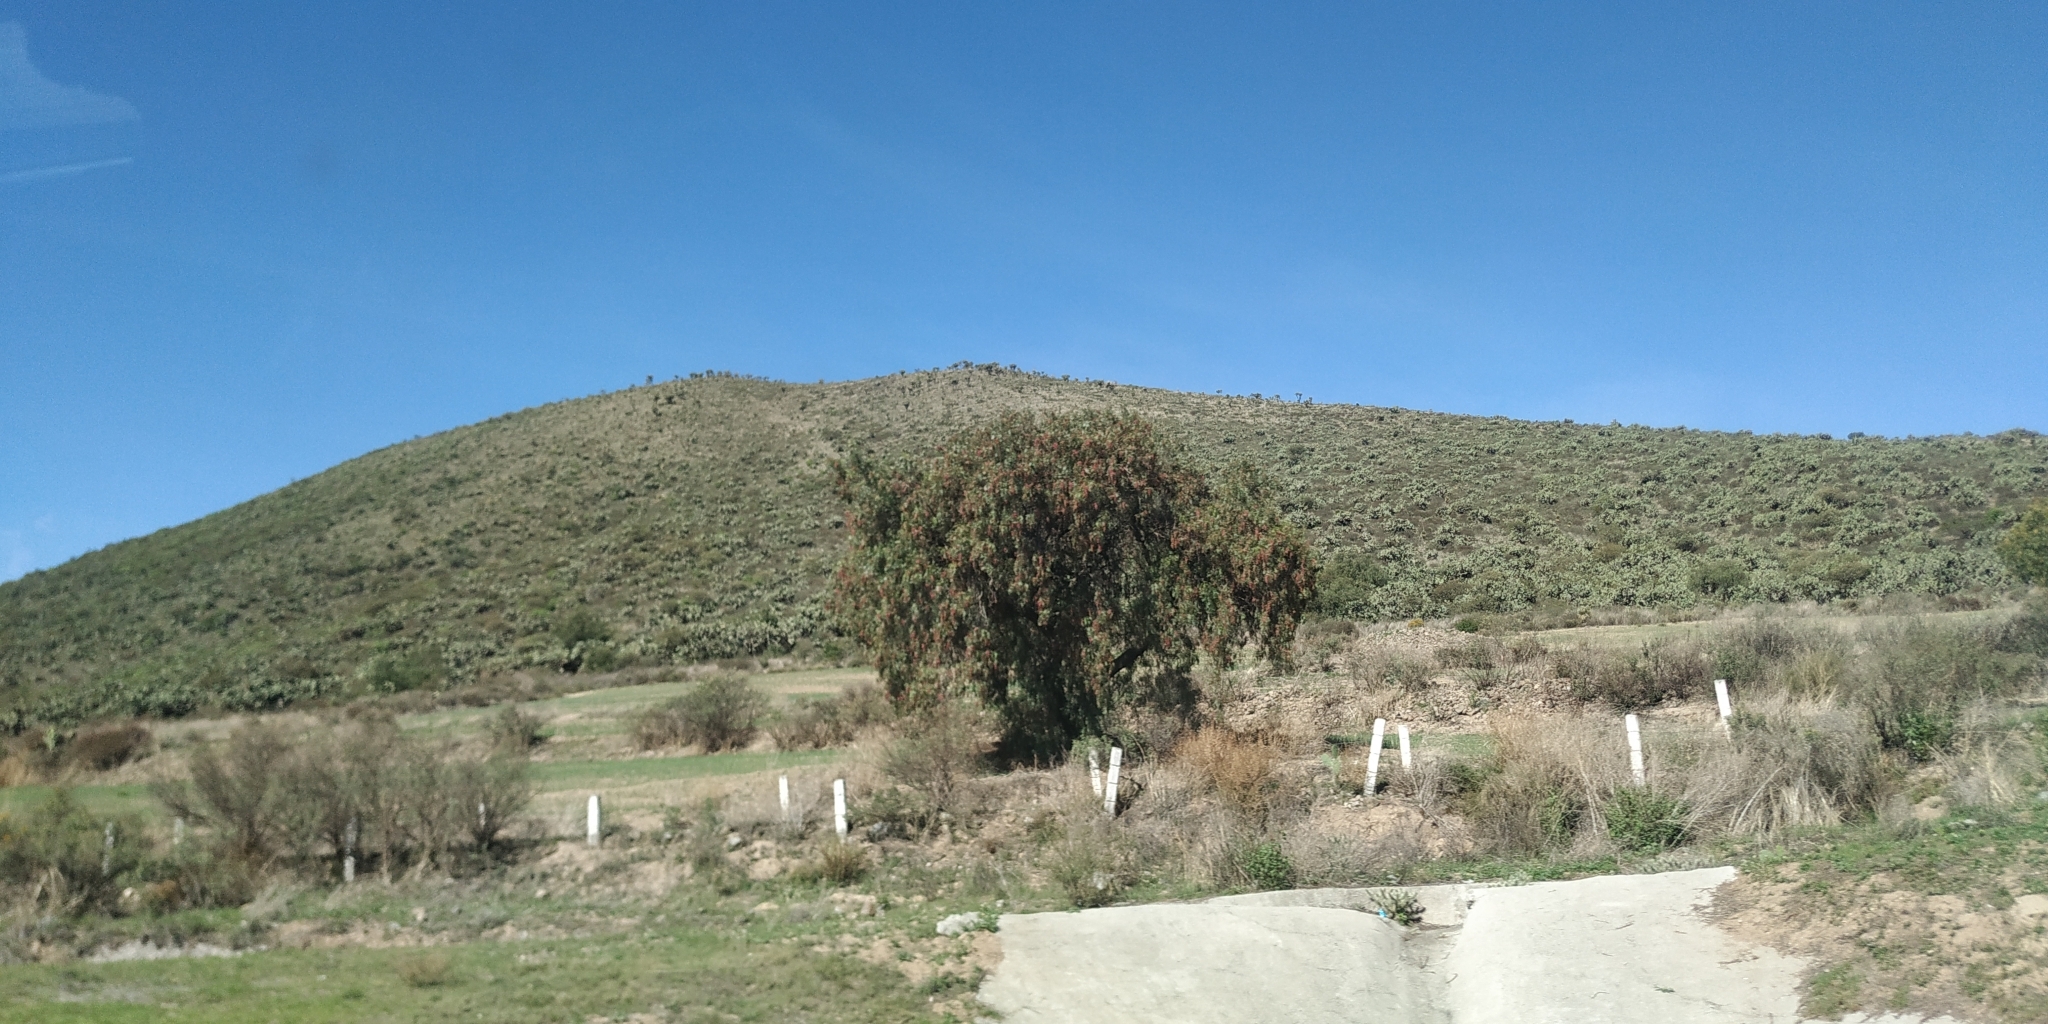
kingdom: Plantae
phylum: Tracheophyta
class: Magnoliopsida
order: Sapindales
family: Anacardiaceae
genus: Schinus
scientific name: Schinus molle
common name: Peruvian peppertree
